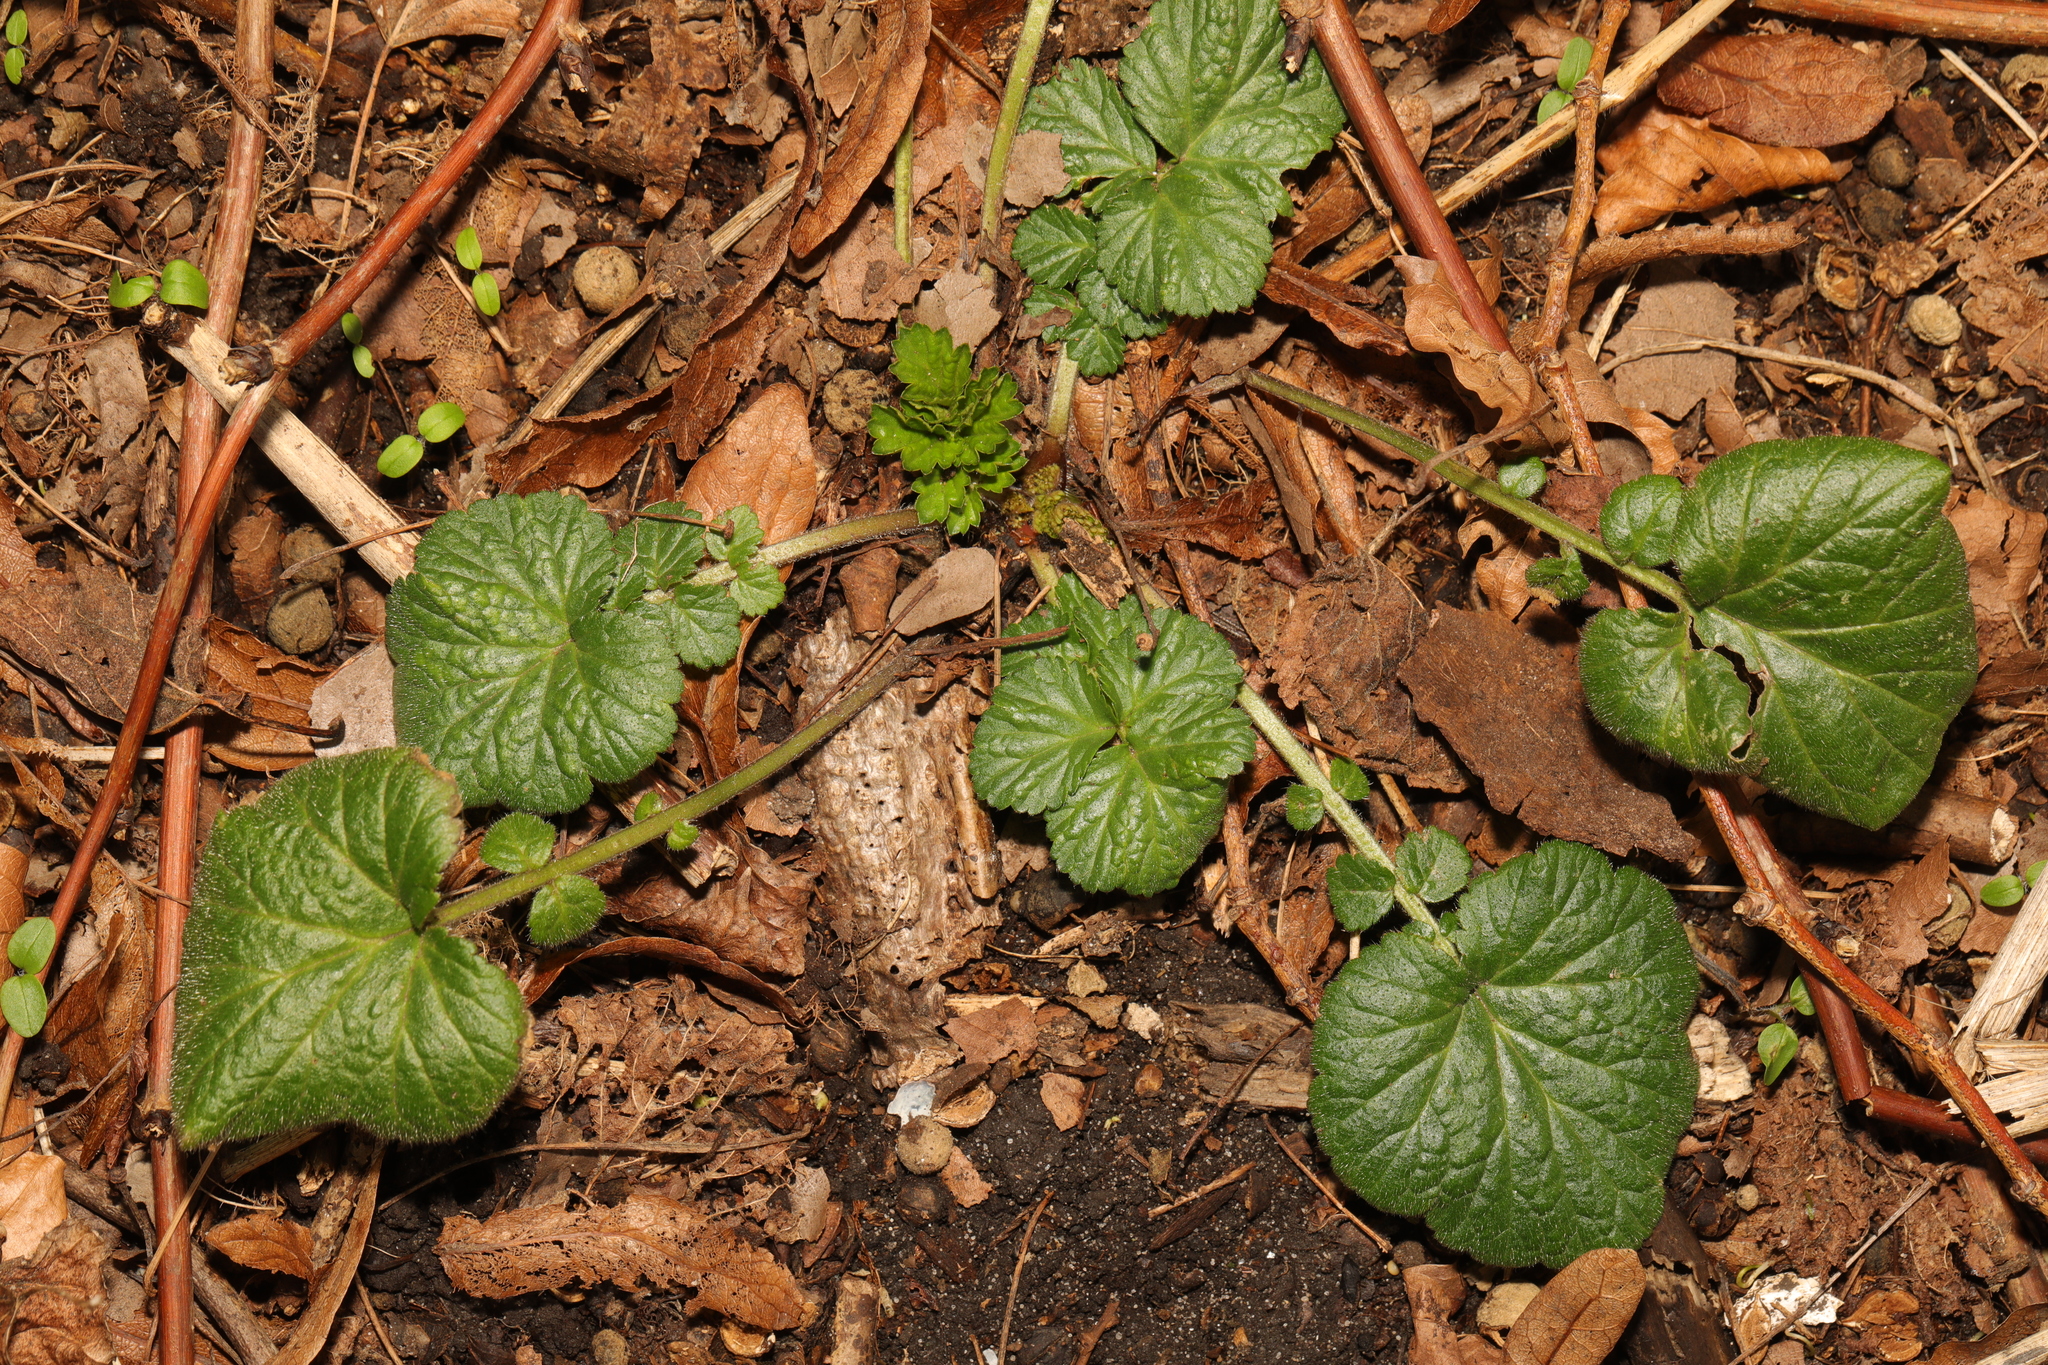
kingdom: Plantae
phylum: Tracheophyta
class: Magnoliopsida
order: Rosales
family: Rosaceae
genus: Geum
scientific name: Geum urbanum
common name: Wood avens
